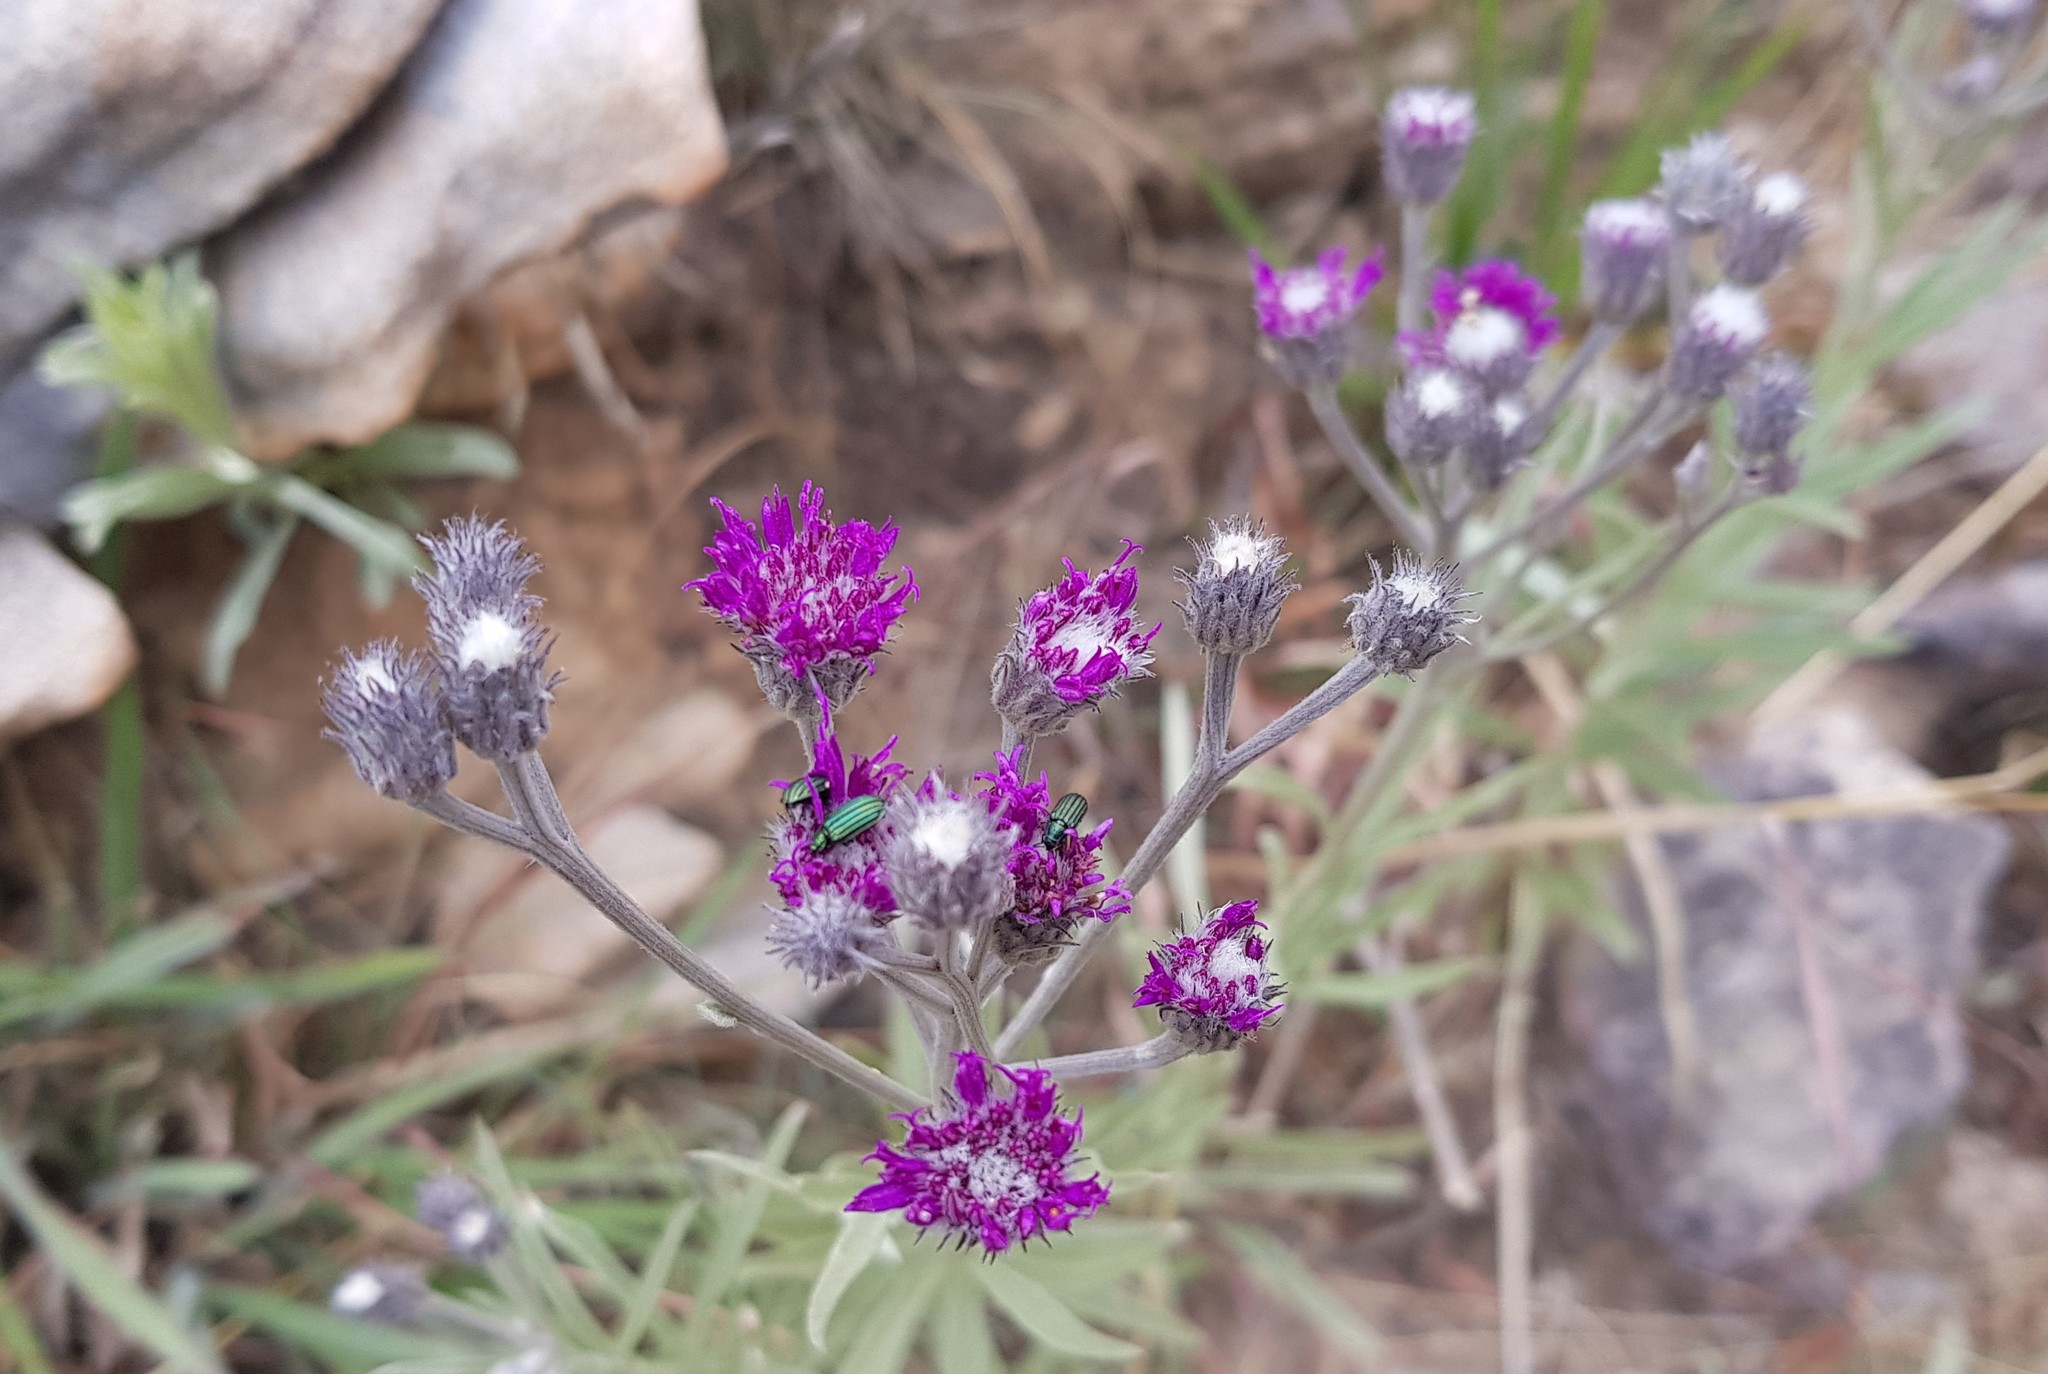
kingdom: Plantae
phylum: Tracheophyta
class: Magnoliopsida
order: Asterales
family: Asteraceae
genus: Hilliardiella
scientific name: Hilliardiella aristata
